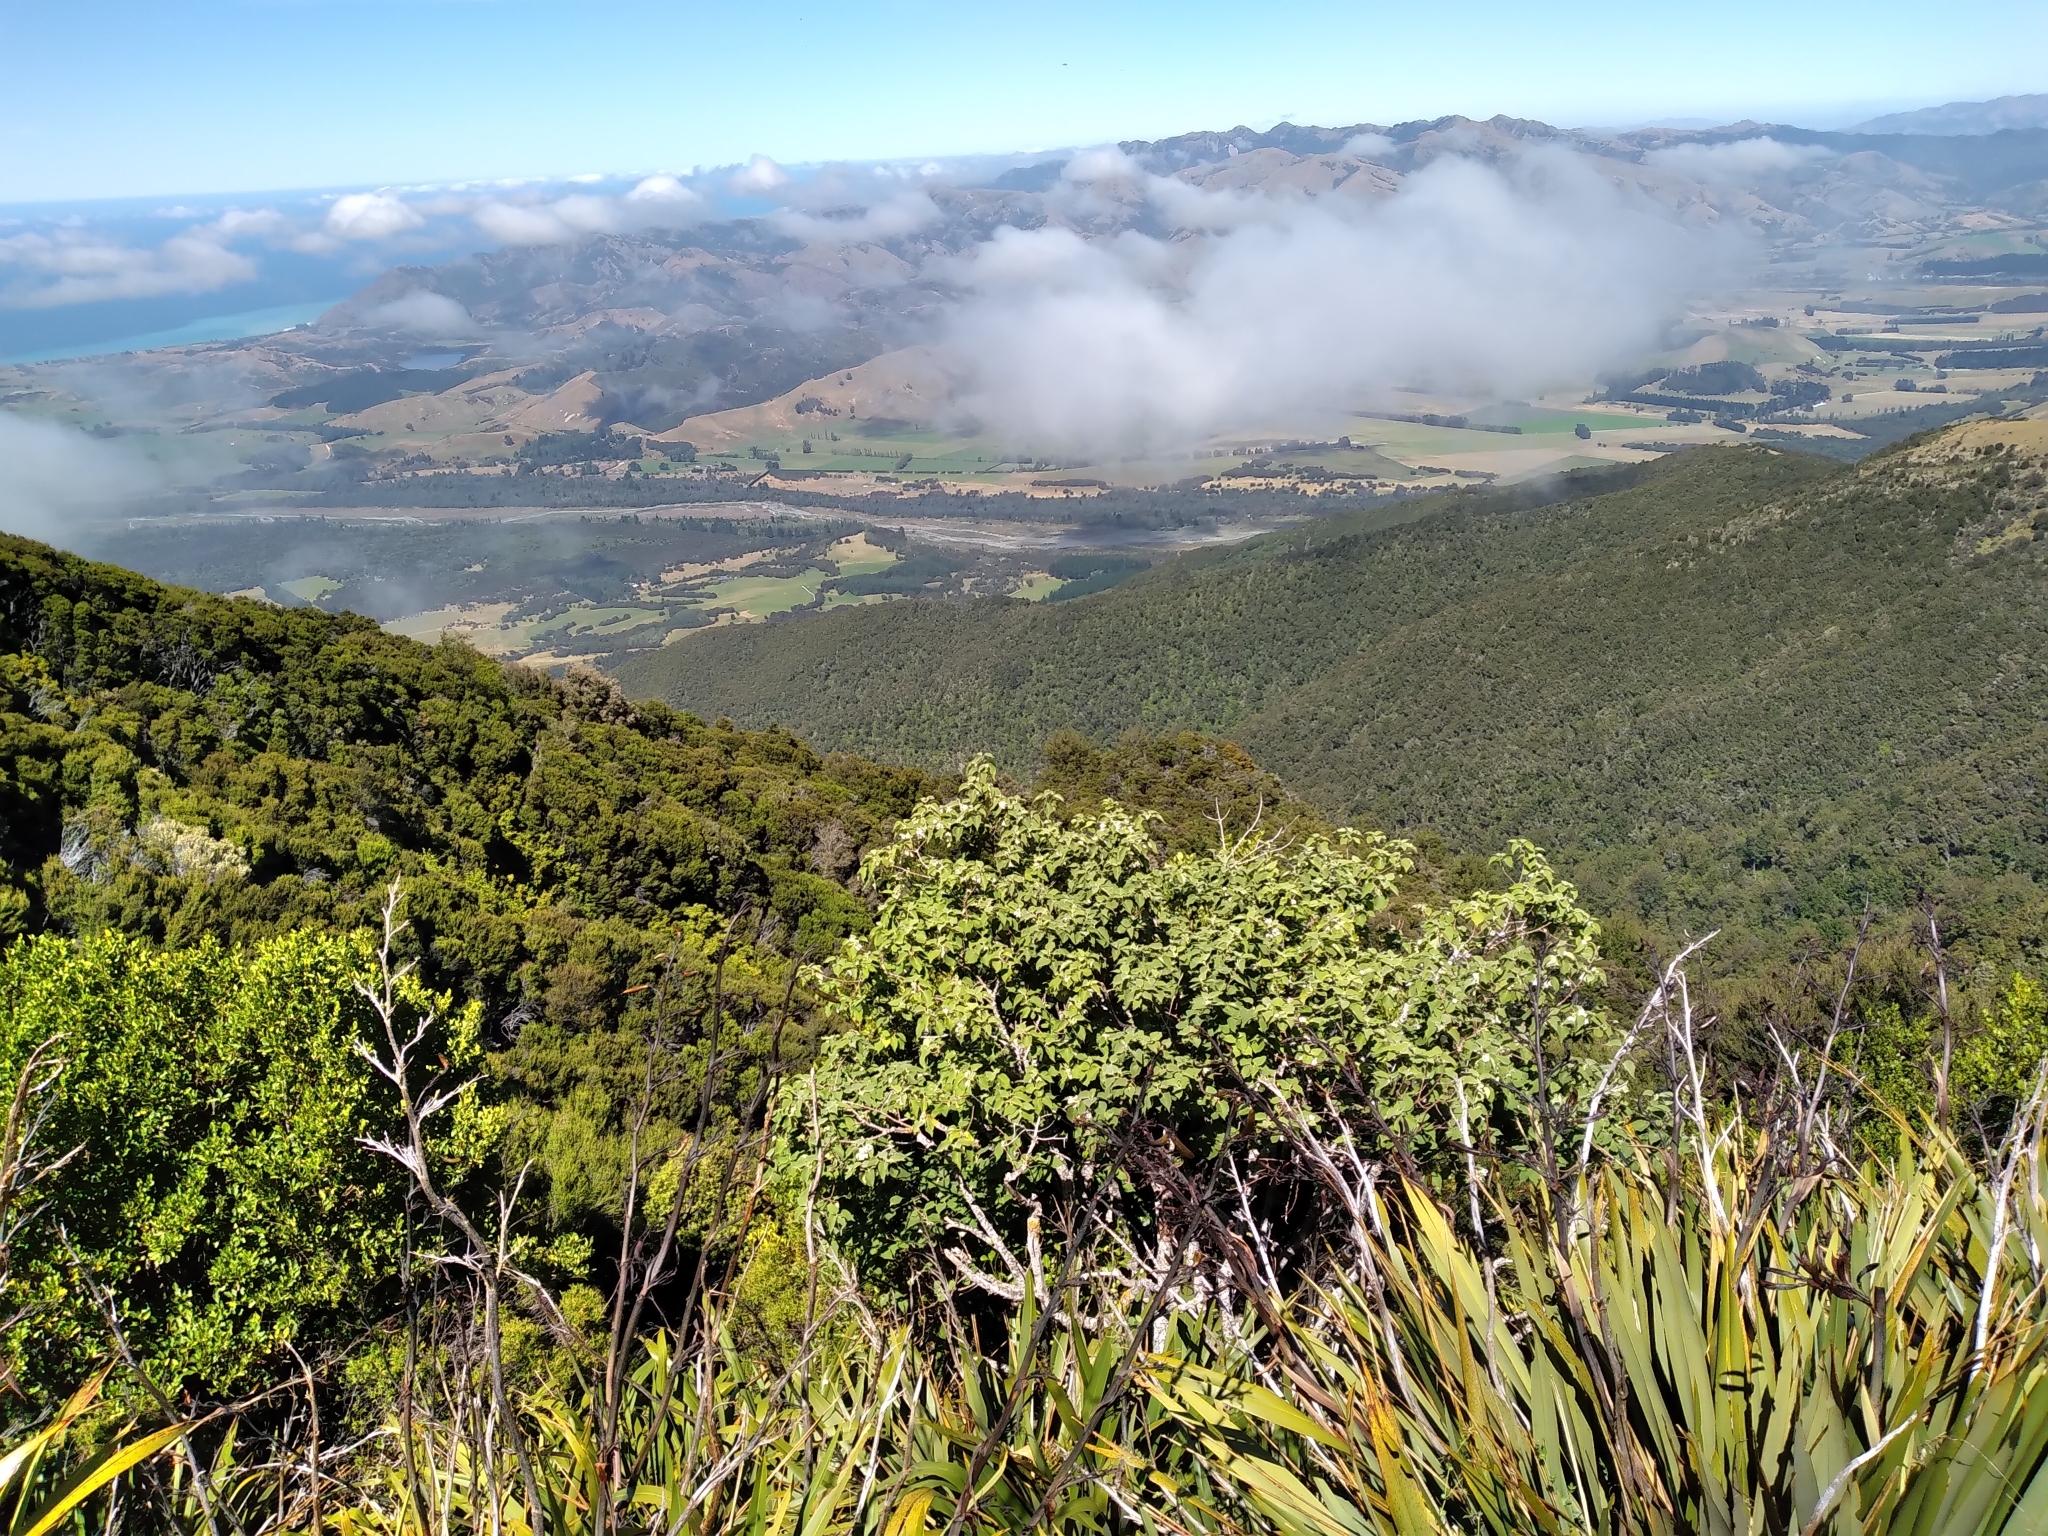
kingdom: Plantae
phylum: Tracheophyta
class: Magnoliopsida
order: Malvales
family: Malvaceae
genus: Hoheria
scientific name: Hoheria lyallii
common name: Lacebark
